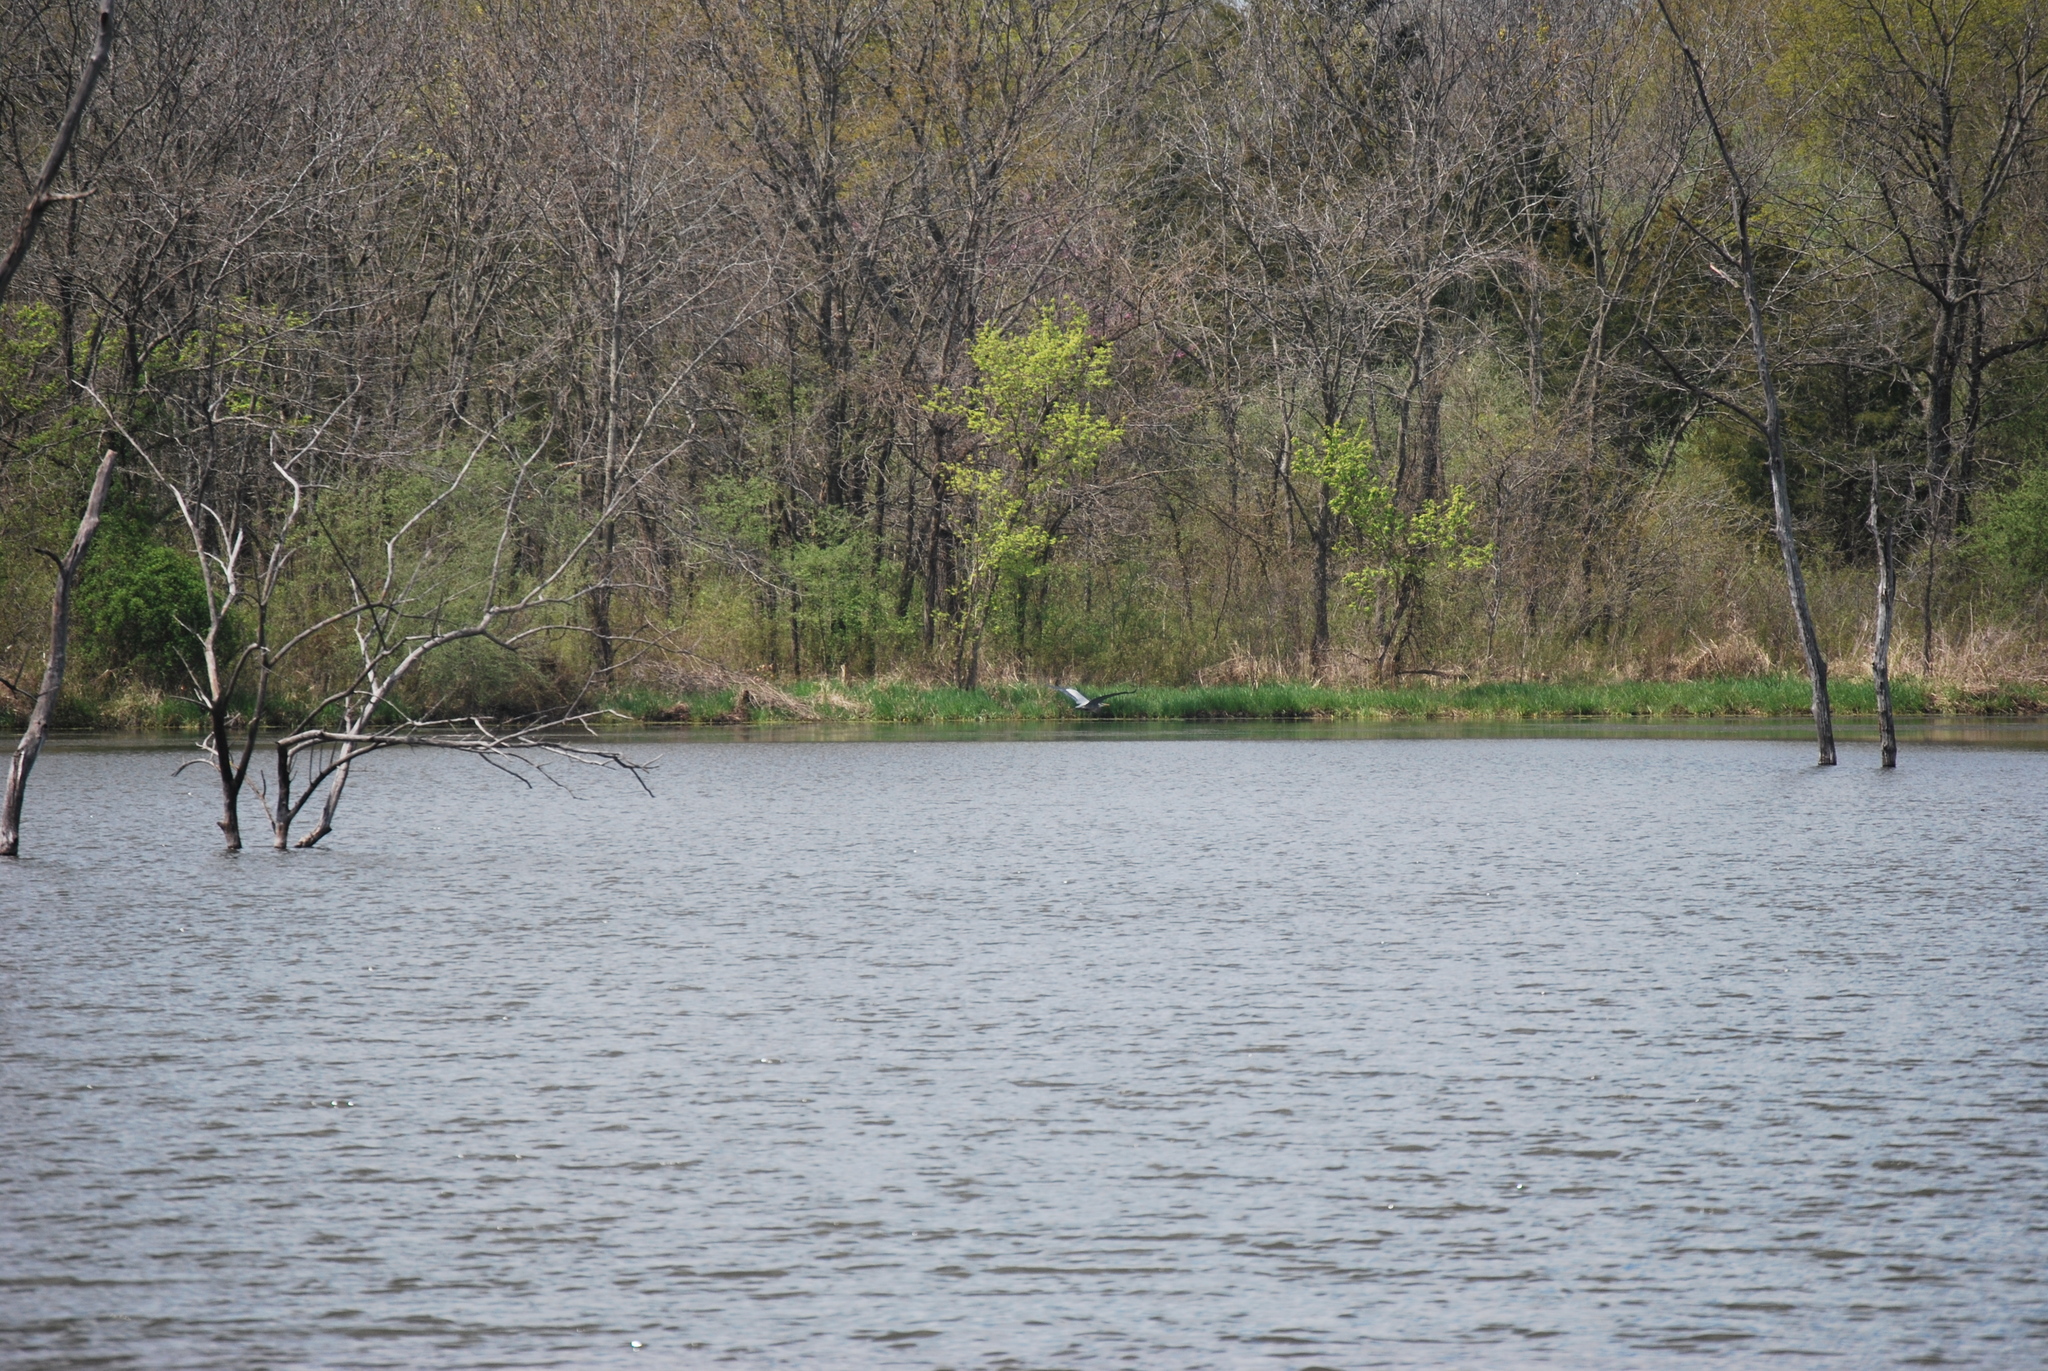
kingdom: Animalia
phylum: Chordata
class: Aves
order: Pelecaniformes
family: Ardeidae
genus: Ardea
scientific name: Ardea herodias
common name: Great blue heron
